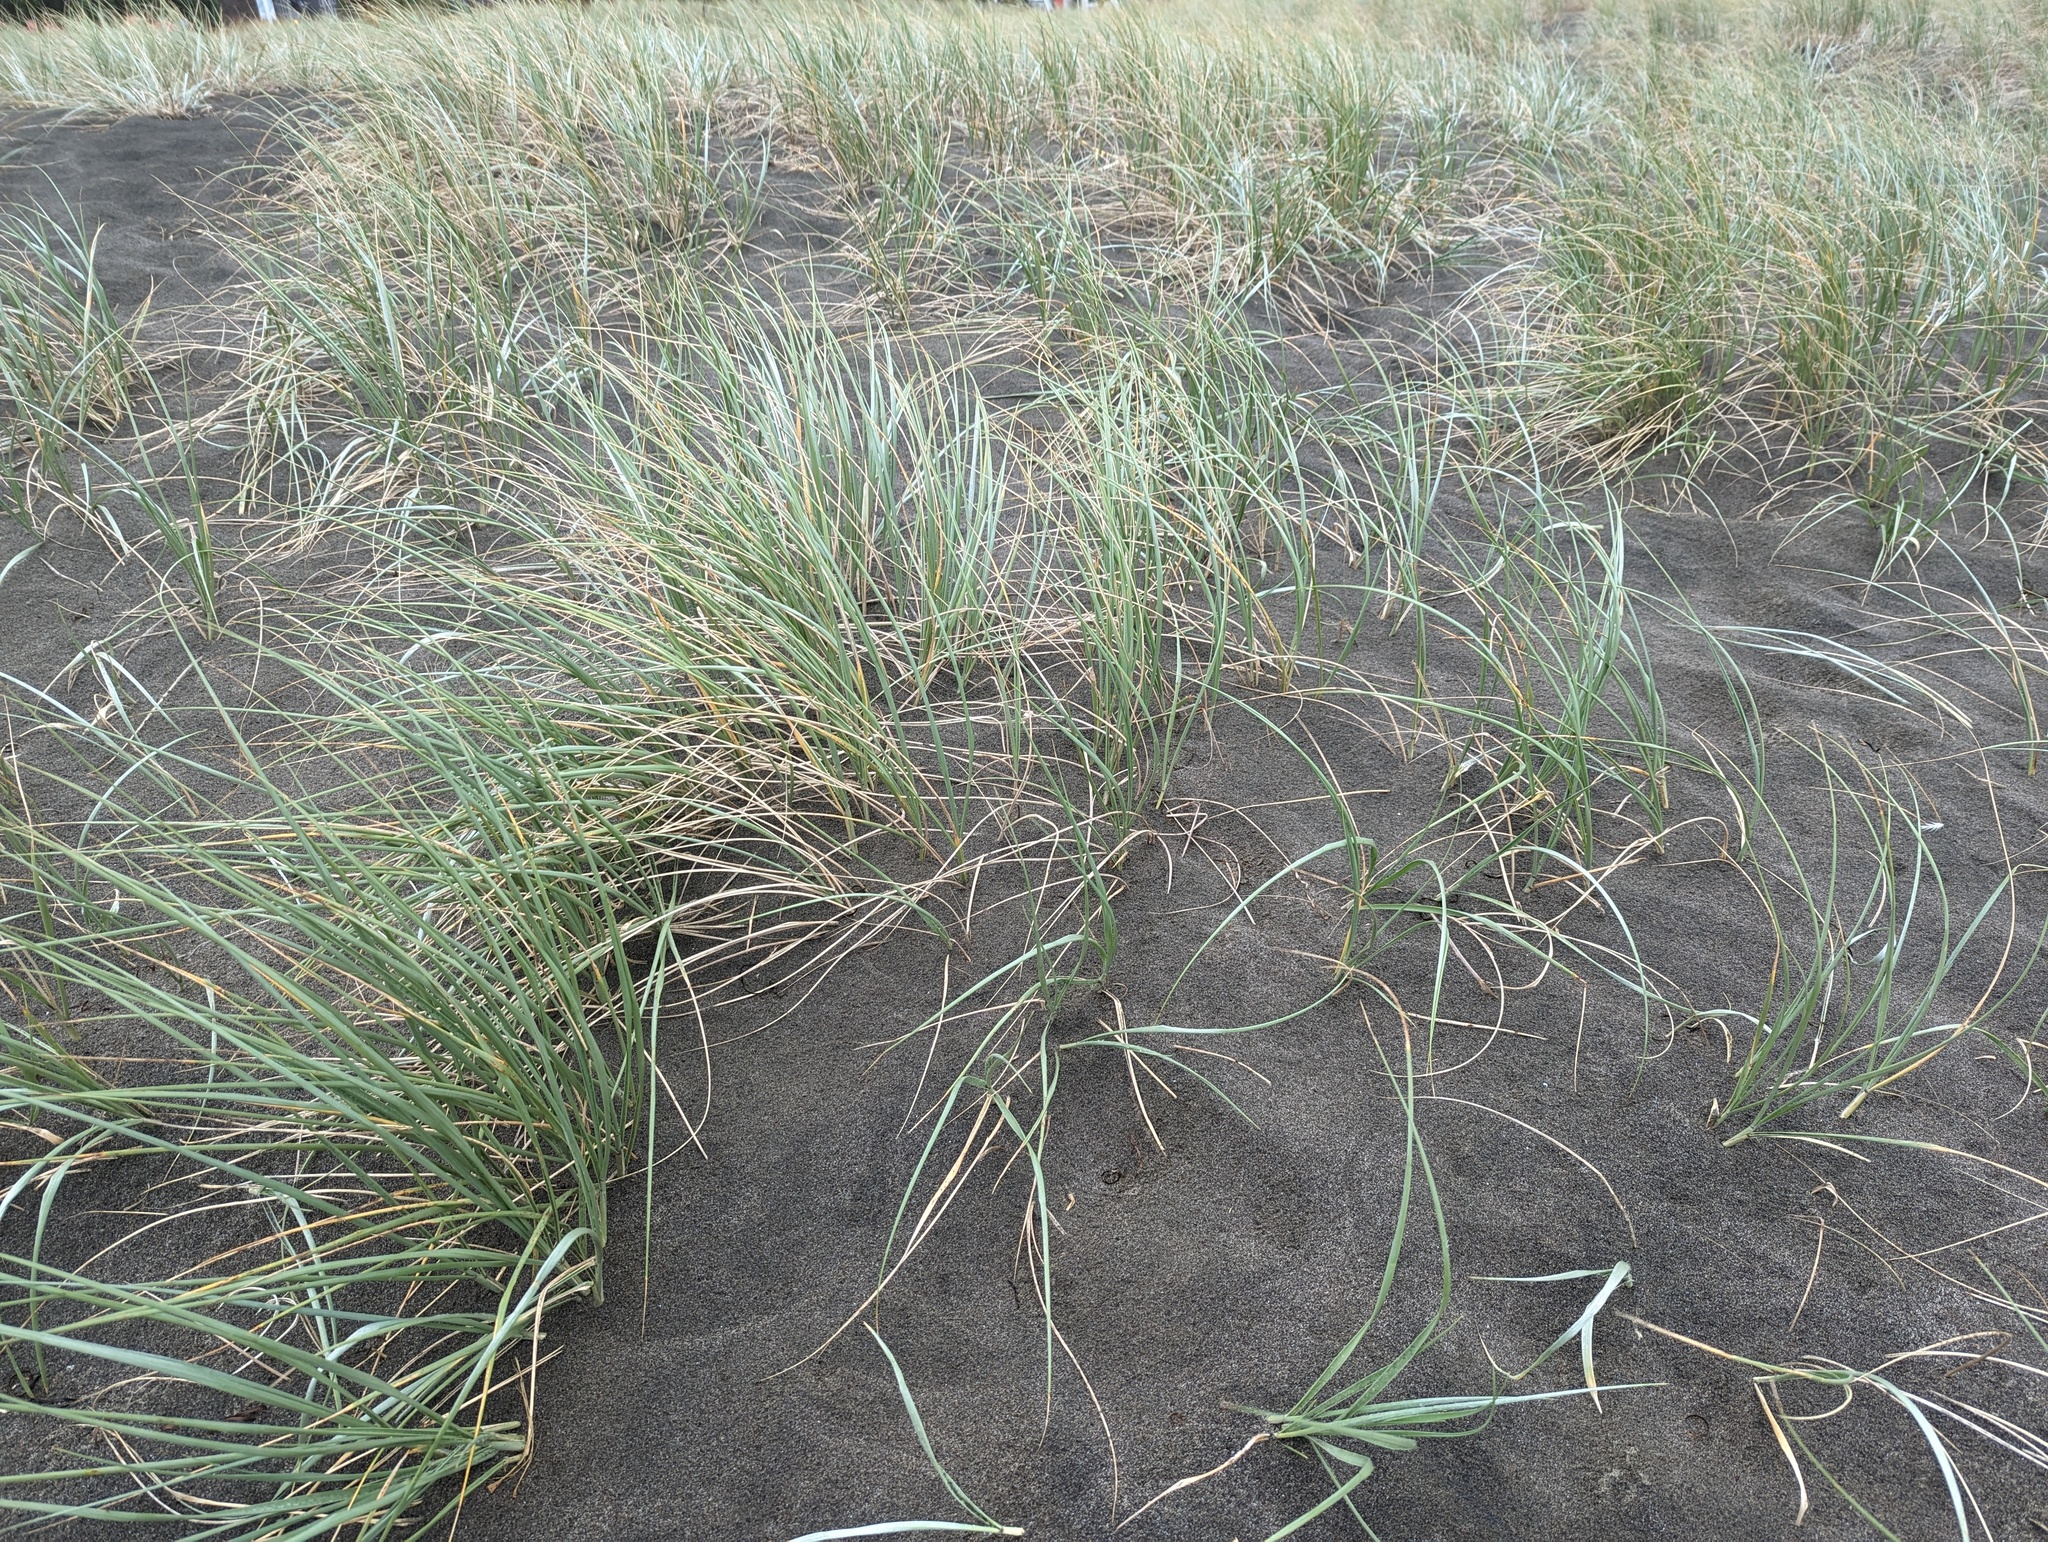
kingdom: Plantae
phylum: Tracheophyta
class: Liliopsida
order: Poales
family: Poaceae
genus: Spinifex
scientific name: Spinifex sericeus
